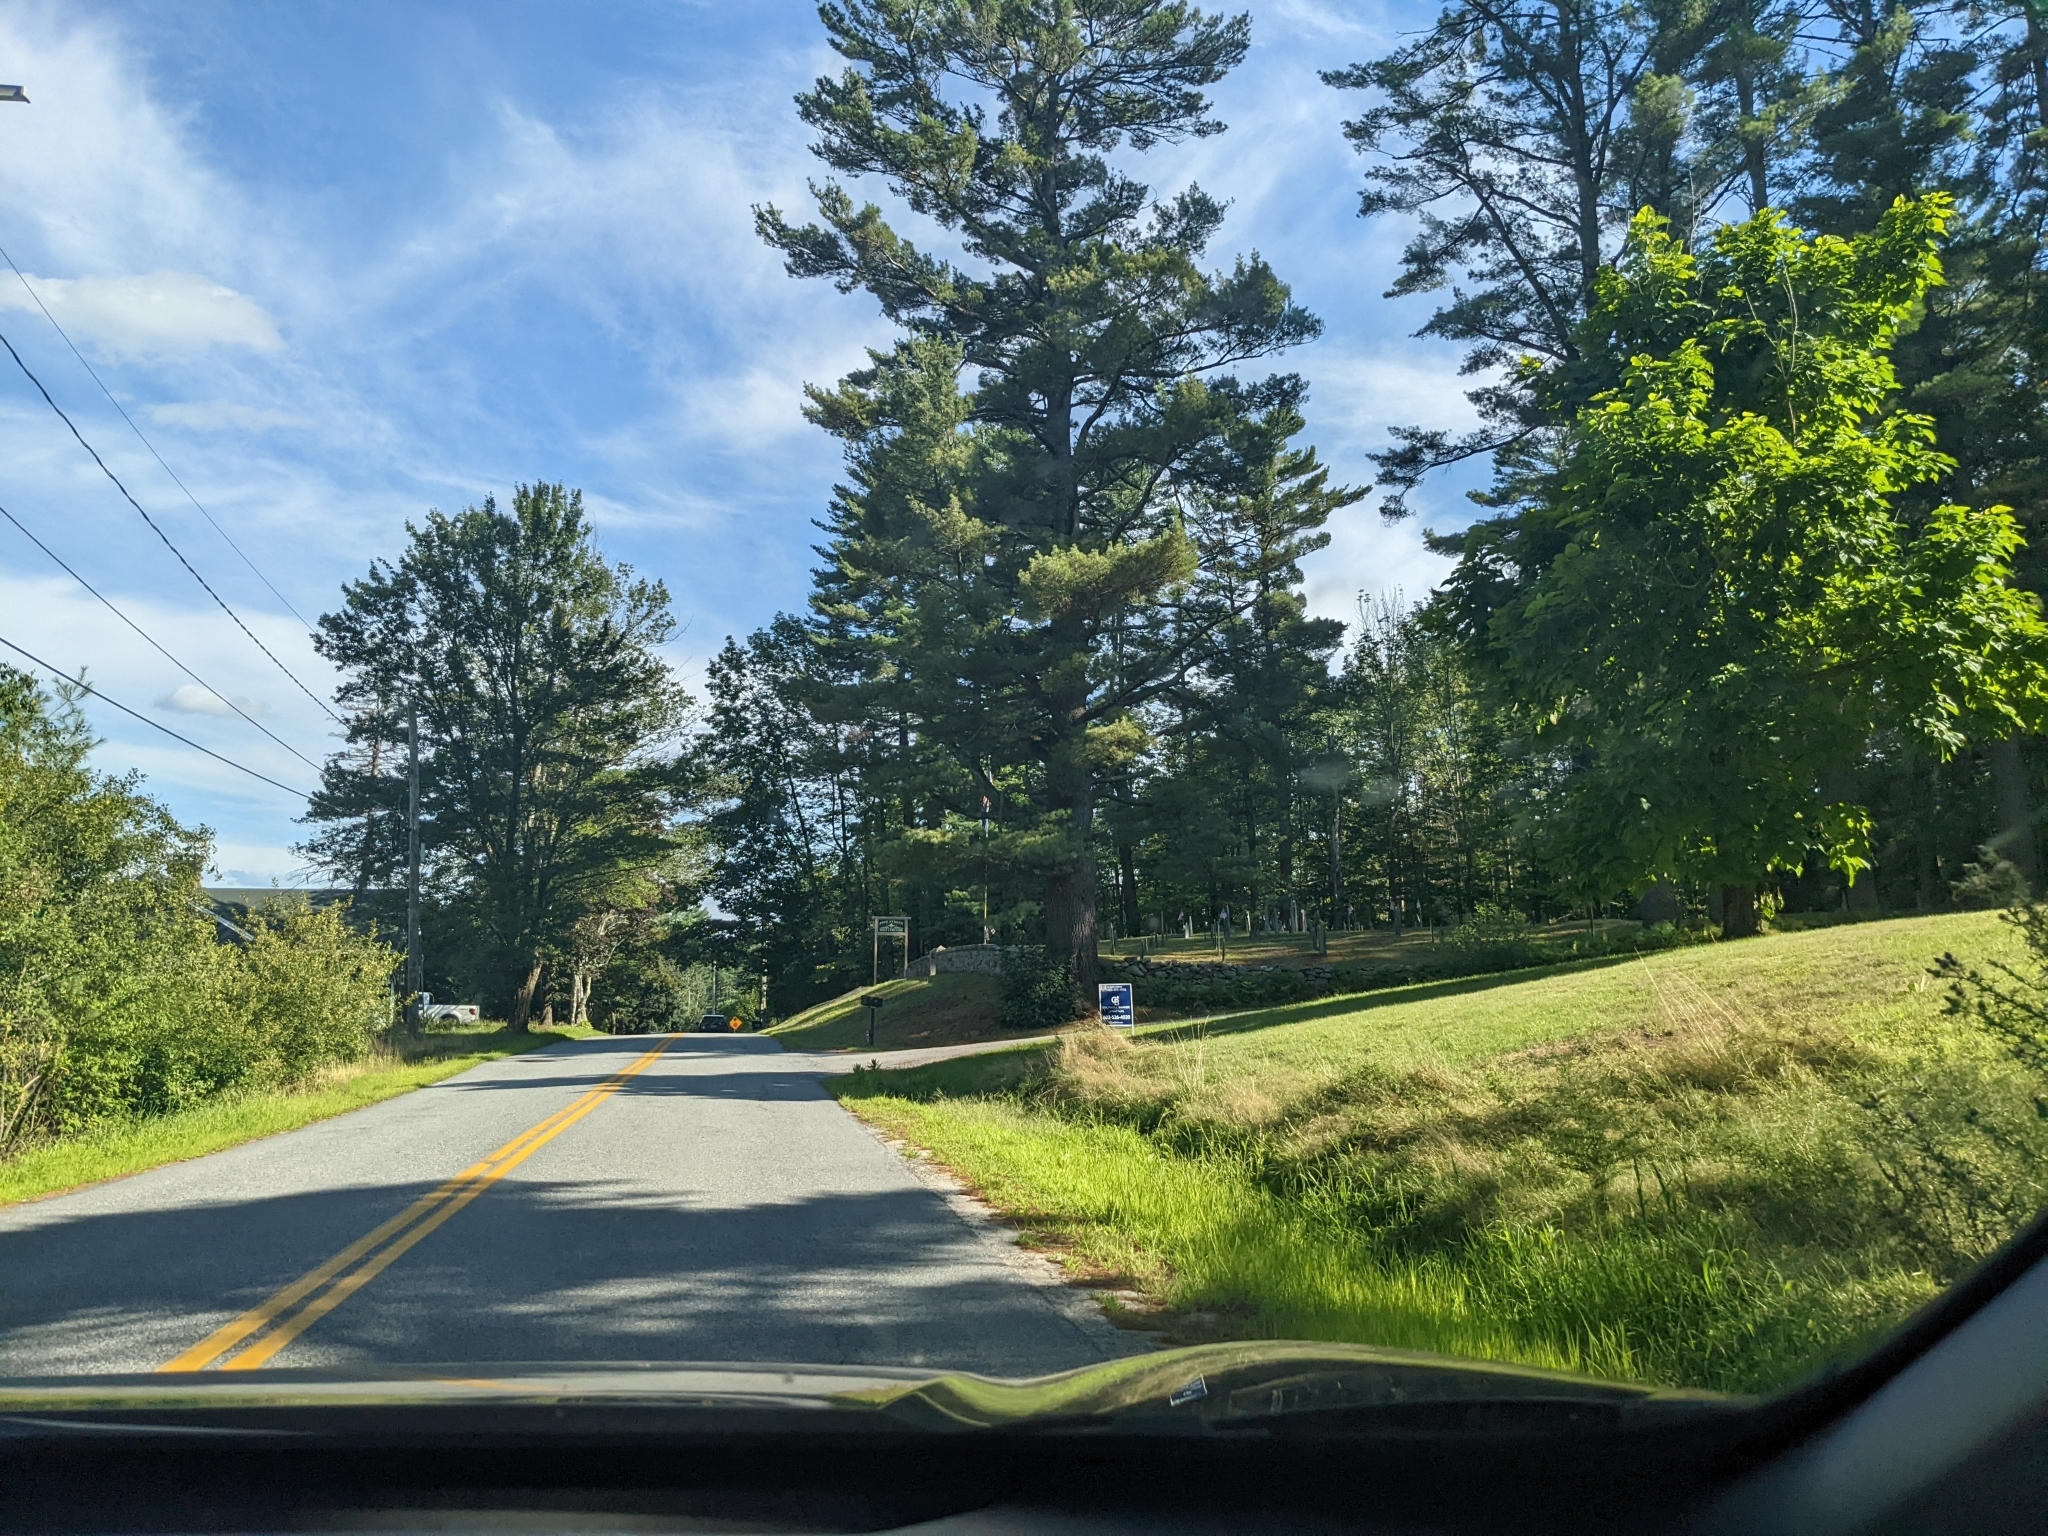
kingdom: Plantae
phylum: Tracheophyta
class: Pinopsida
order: Pinales
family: Pinaceae
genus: Pinus
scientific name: Pinus strobus
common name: Weymouth pine
